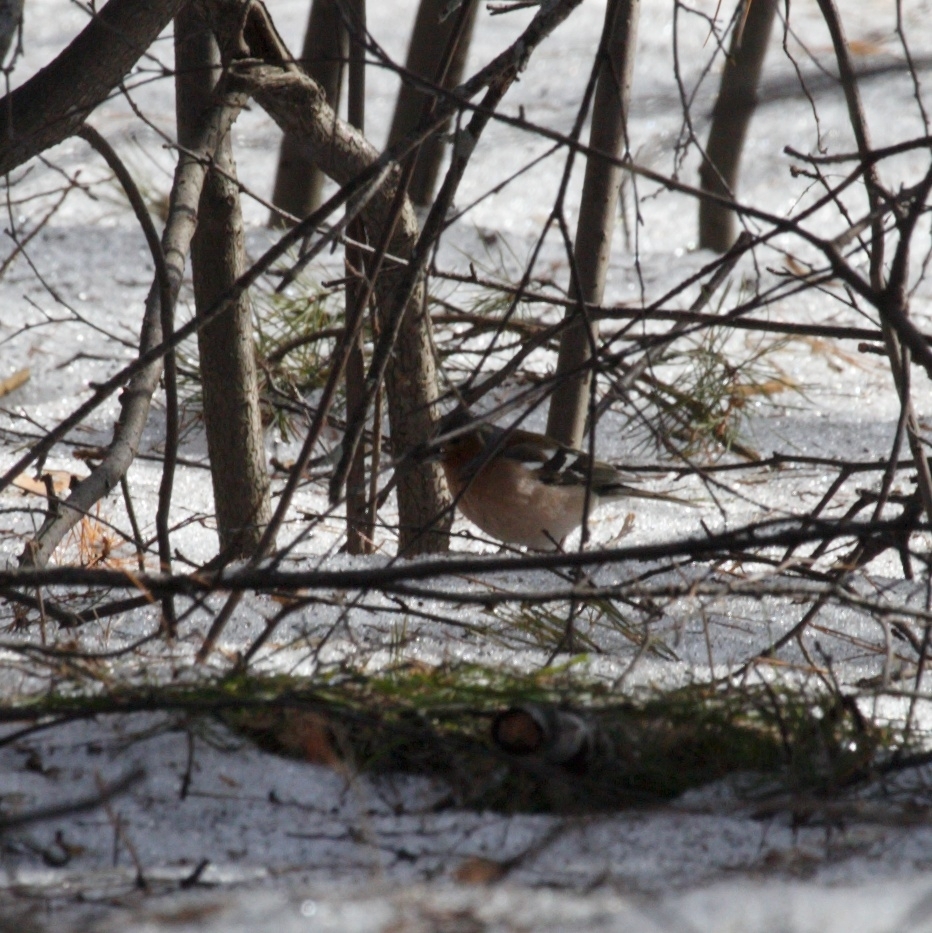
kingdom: Animalia
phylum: Chordata
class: Aves
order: Passeriformes
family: Fringillidae
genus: Fringilla
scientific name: Fringilla coelebs
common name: Common chaffinch
